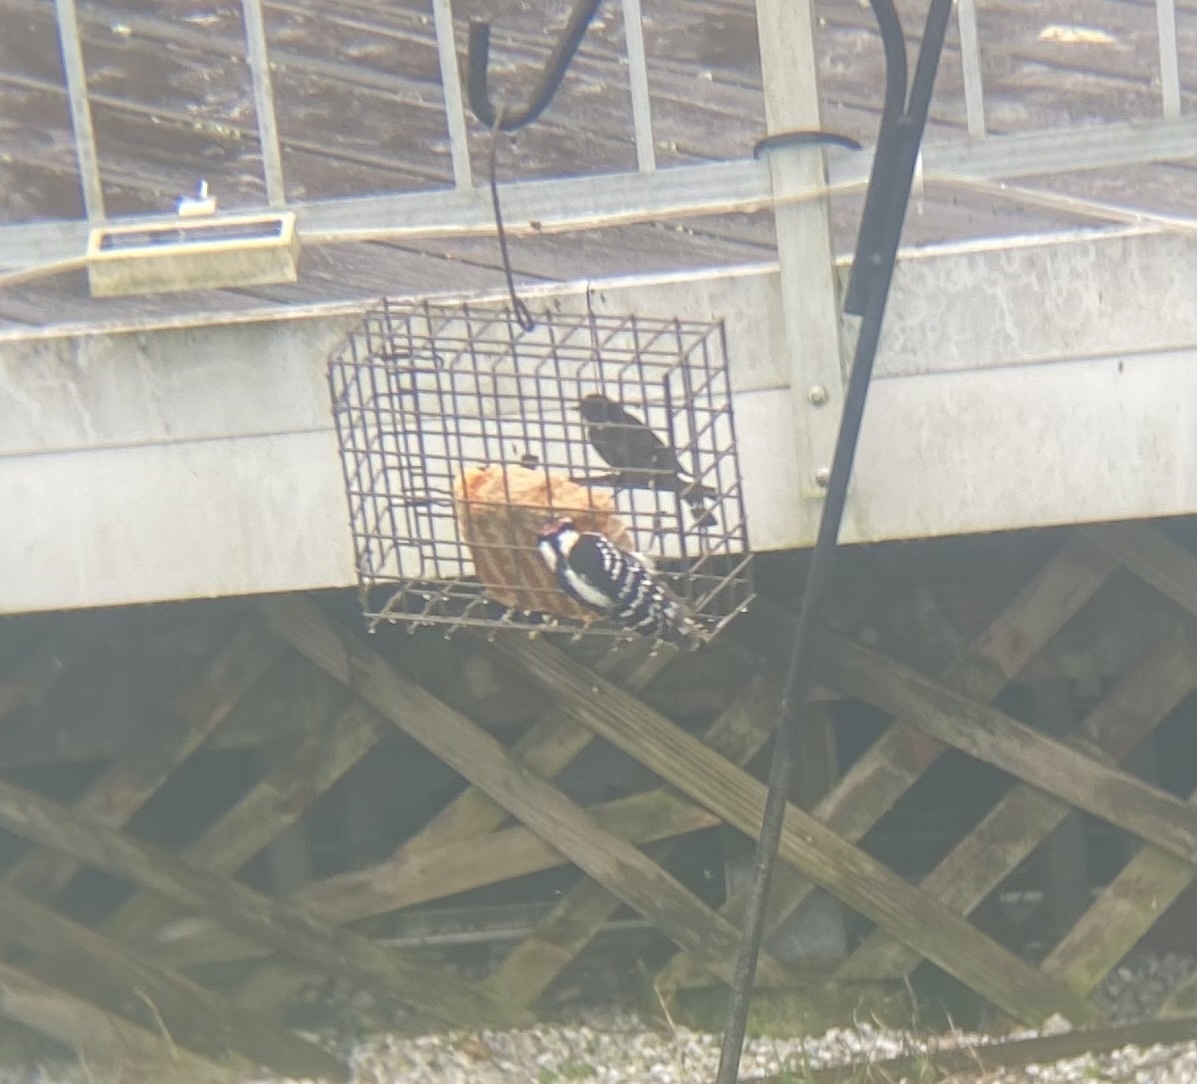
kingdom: Animalia
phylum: Chordata
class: Aves
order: Piciformes
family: Picidae
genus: Dryobates
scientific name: Dryobates pubescens
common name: Downy woodpecker
